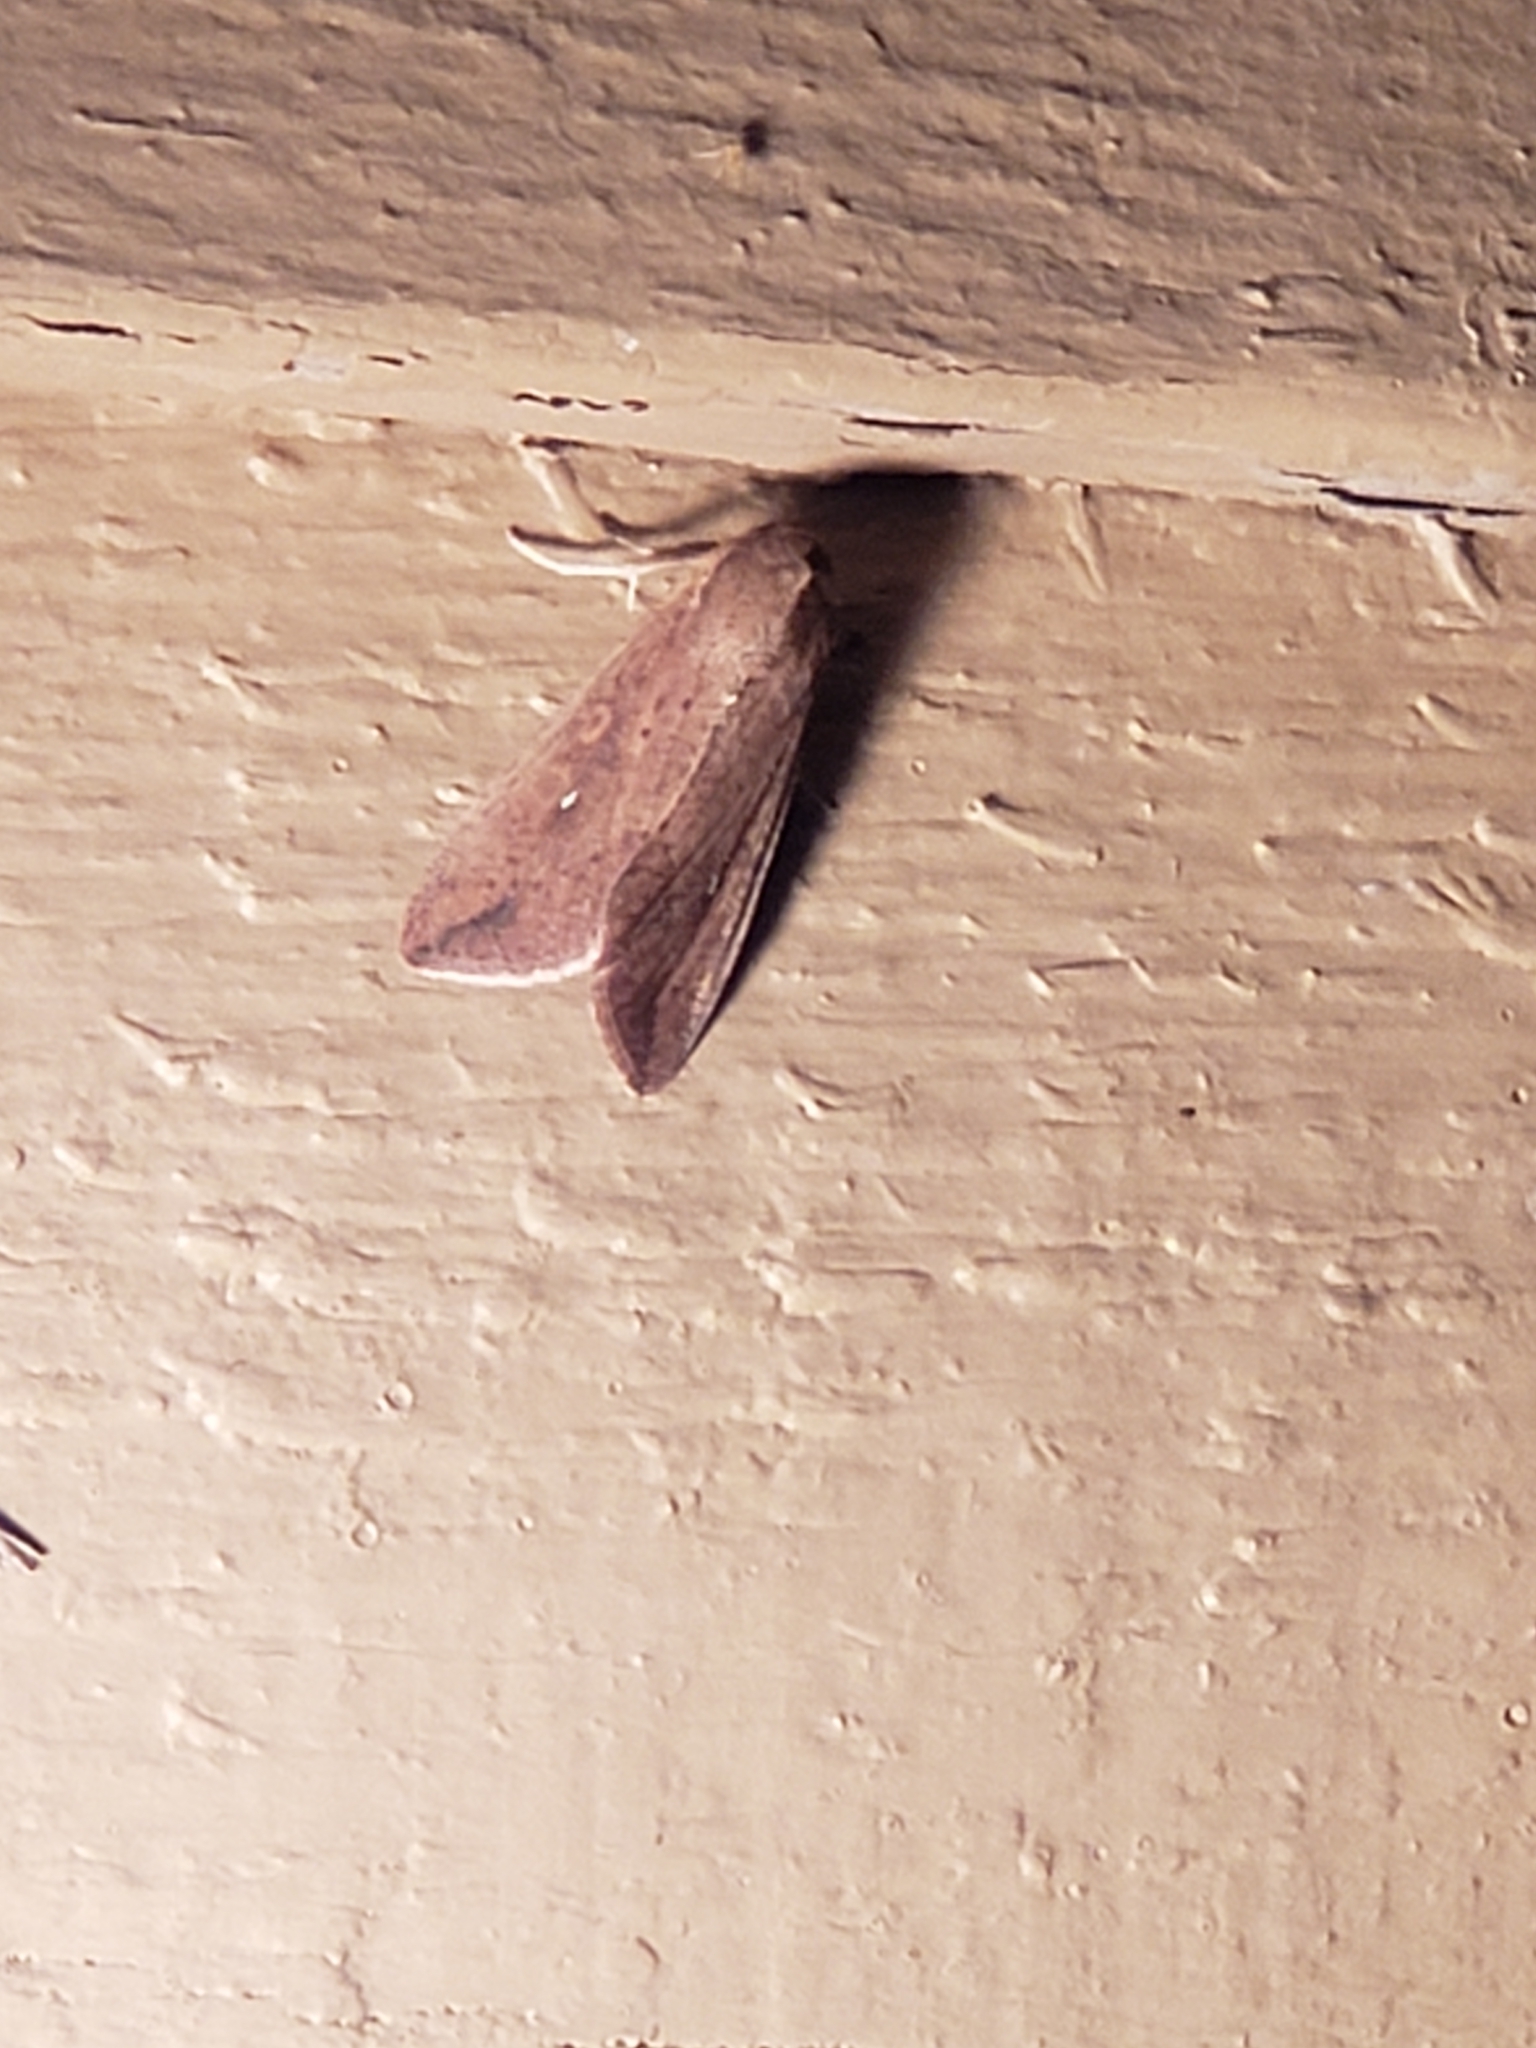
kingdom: Animalia
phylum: Arthropoda
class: Insecta
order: Lepidoptera
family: Noctuidae
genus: Mythimna
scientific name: Mythimna unipuncta
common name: White-speck
